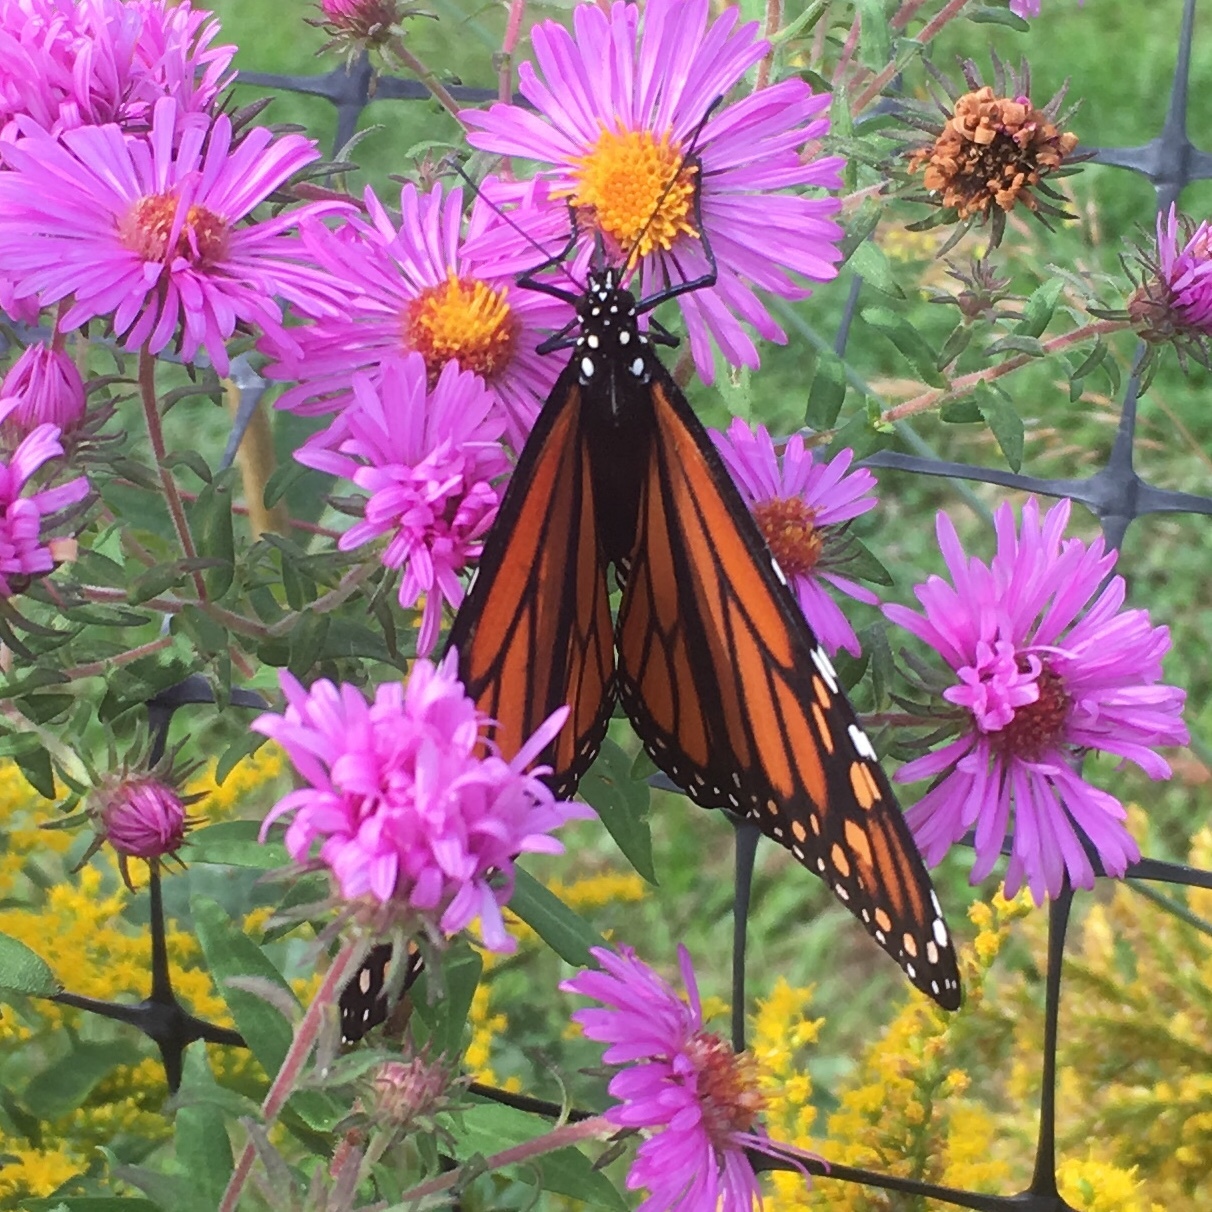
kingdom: Animalia
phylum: Arthropoda
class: Insecta
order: Lepidoptera
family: Nymphalidae
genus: Danaus
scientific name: Danaus plexippus
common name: Monarch
